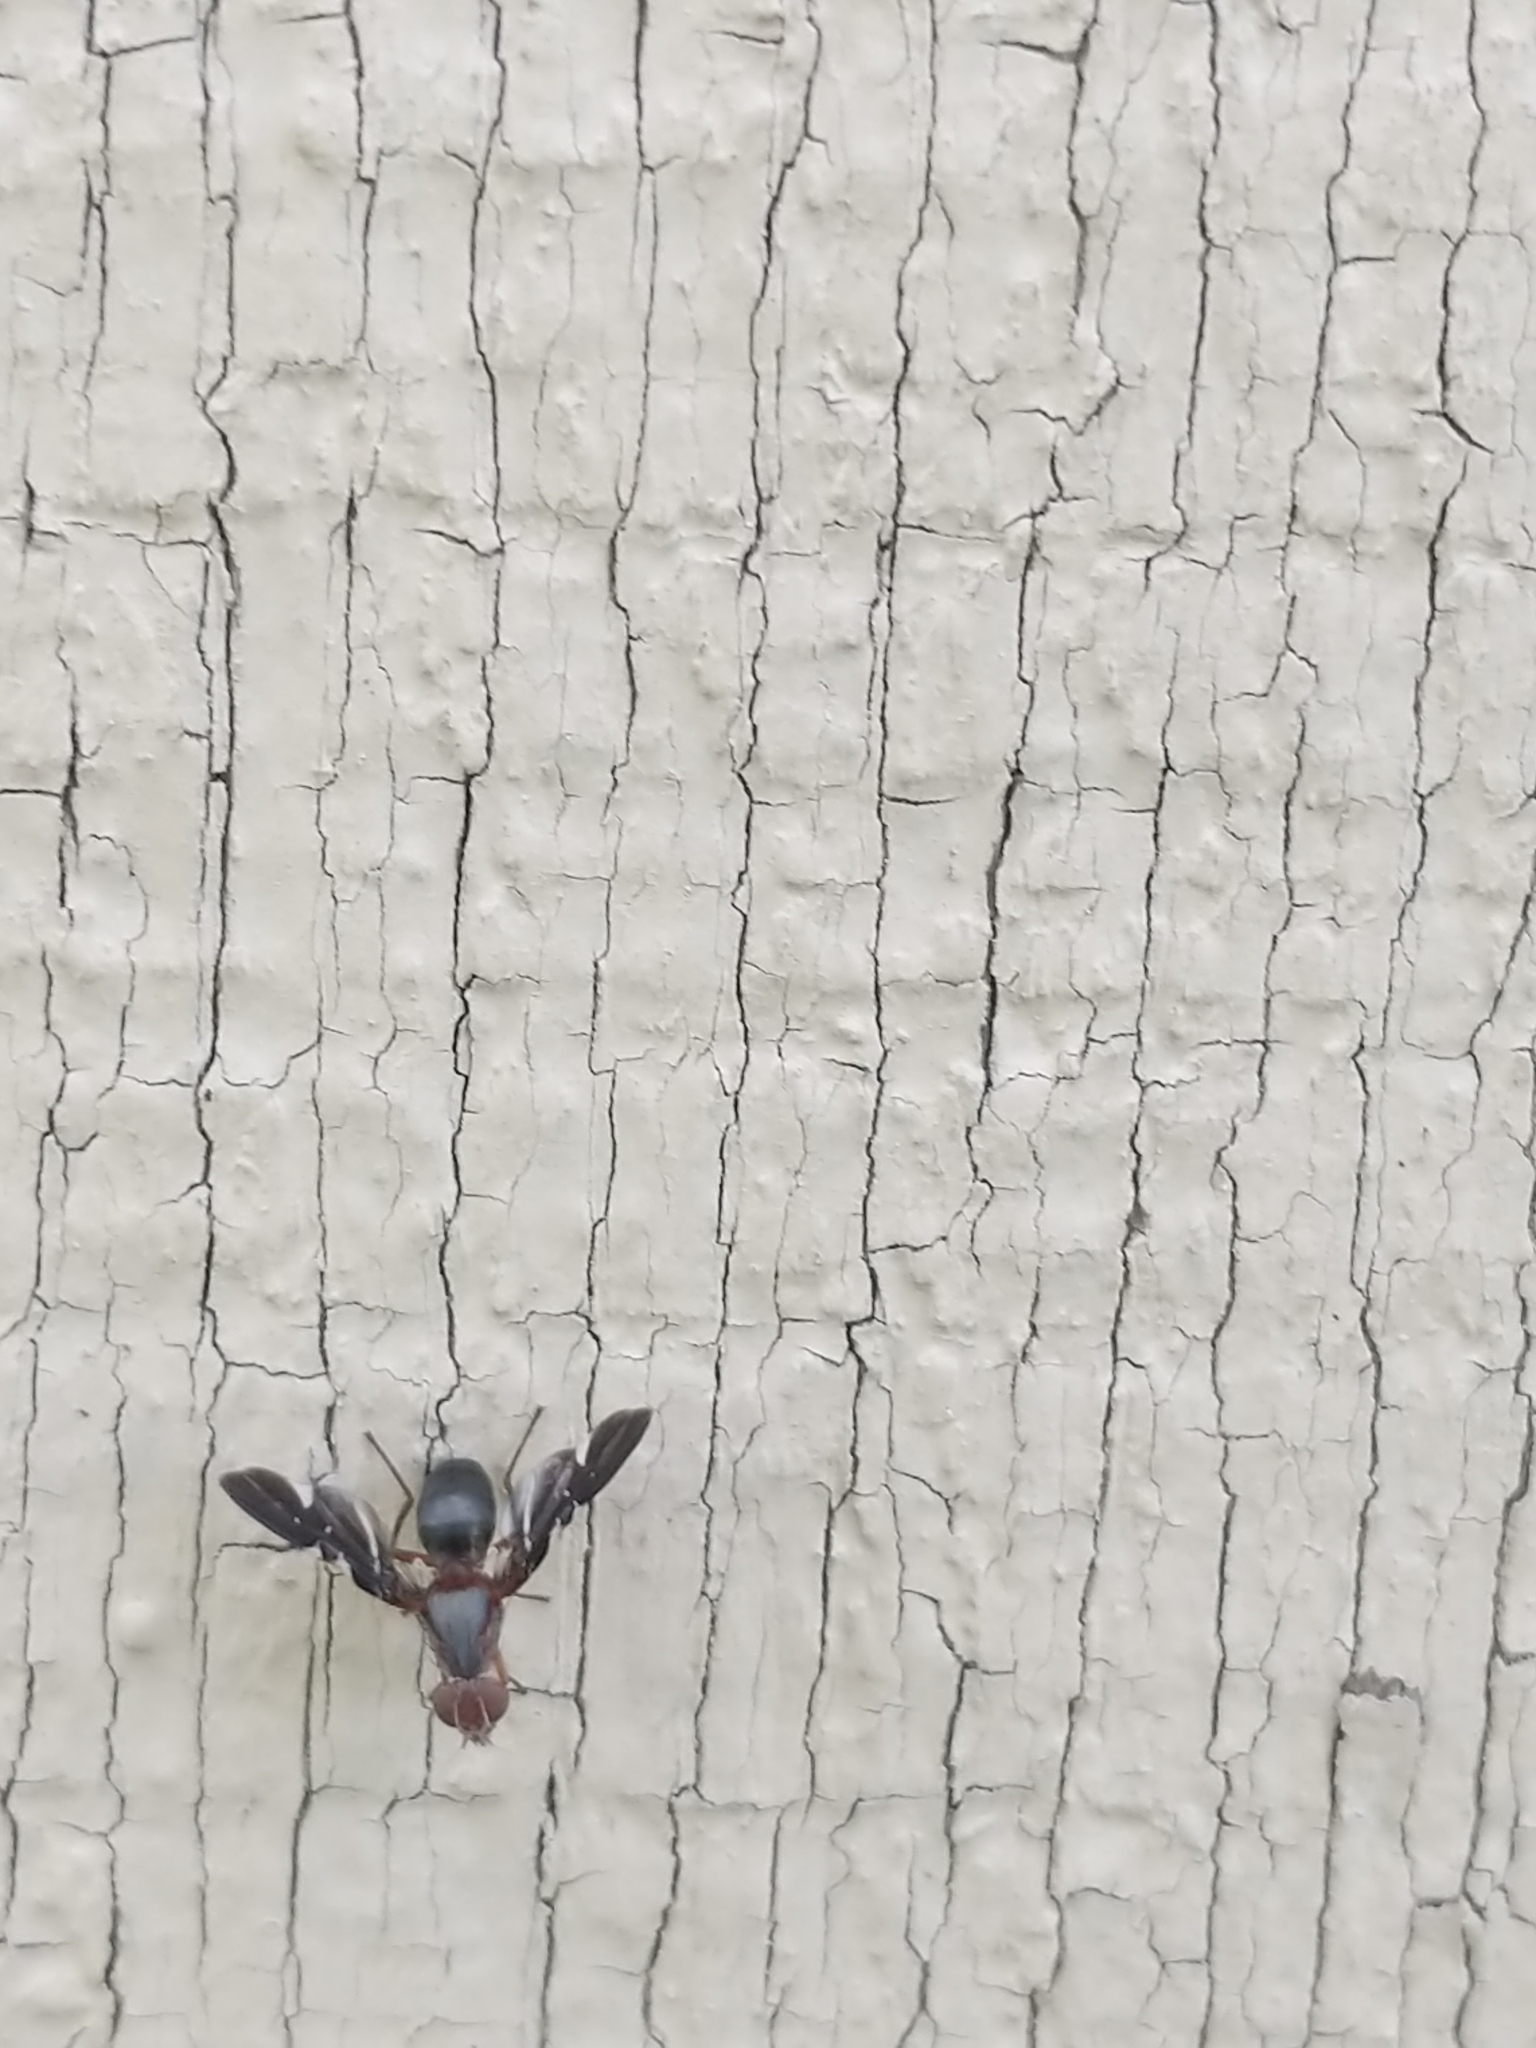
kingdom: Animalia
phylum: Arthropoda
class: Insecta
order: Diptera
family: Ulidiidae
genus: Delphinia
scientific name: Delphinia picta
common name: Common picture-winged fly
